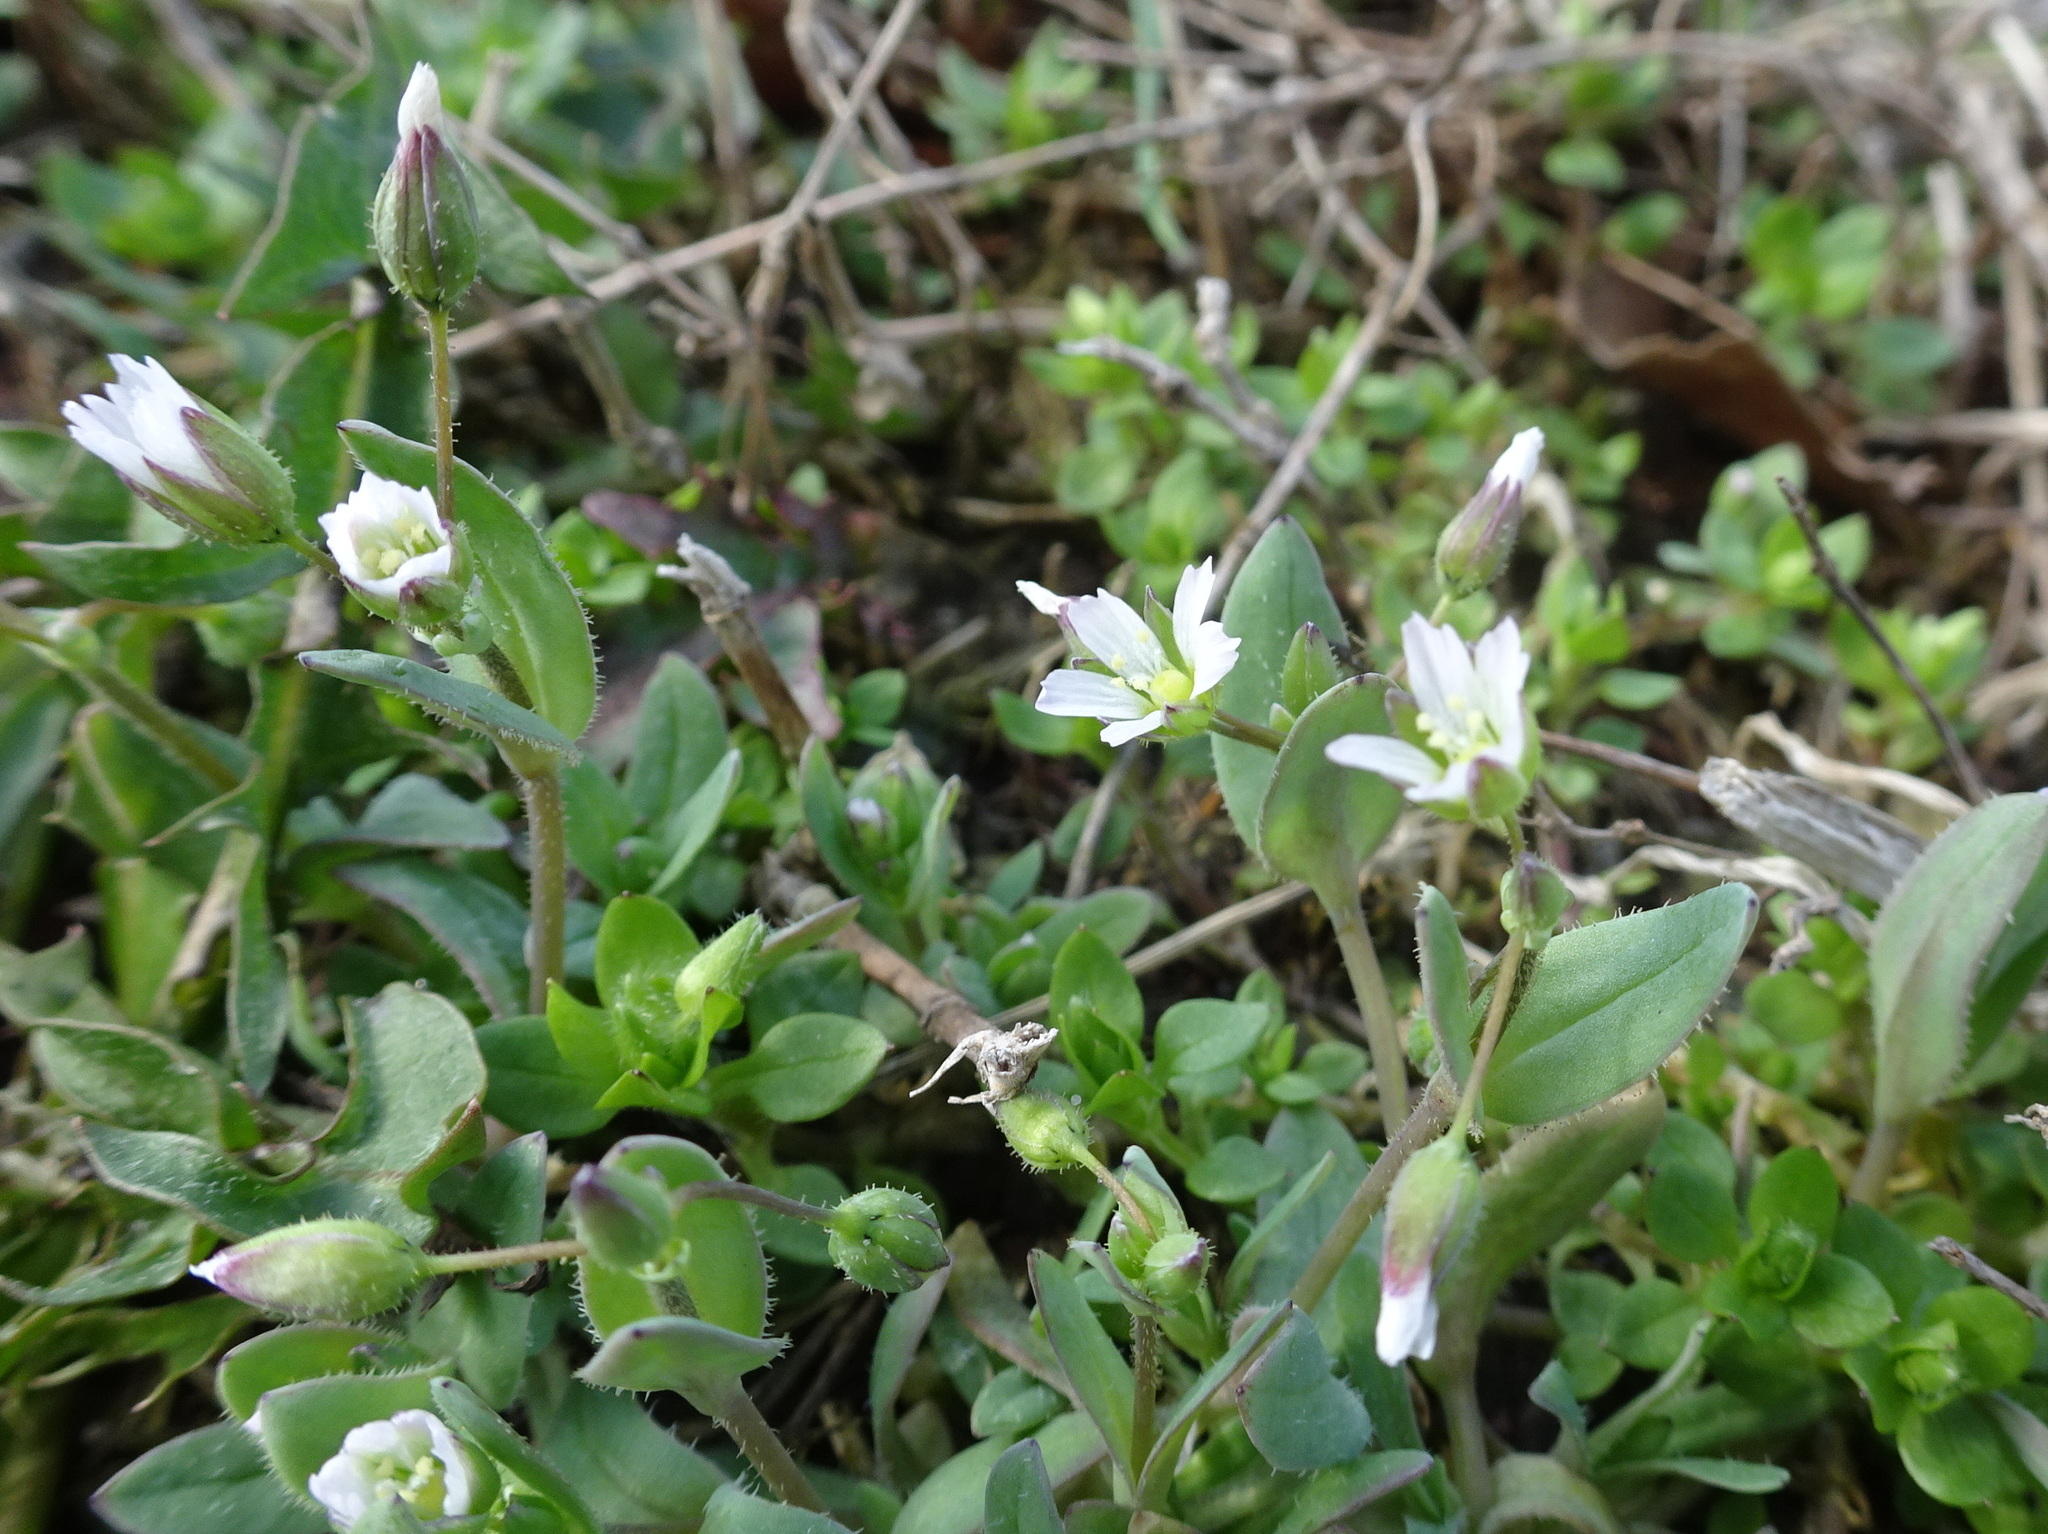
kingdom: Plantae
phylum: Tracheophyta
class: Magnoliopsida
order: Caryophyllales
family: Caryophyllaceae
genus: Holosteum
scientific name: Holosteum umbellatum
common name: Jagged chickweed
